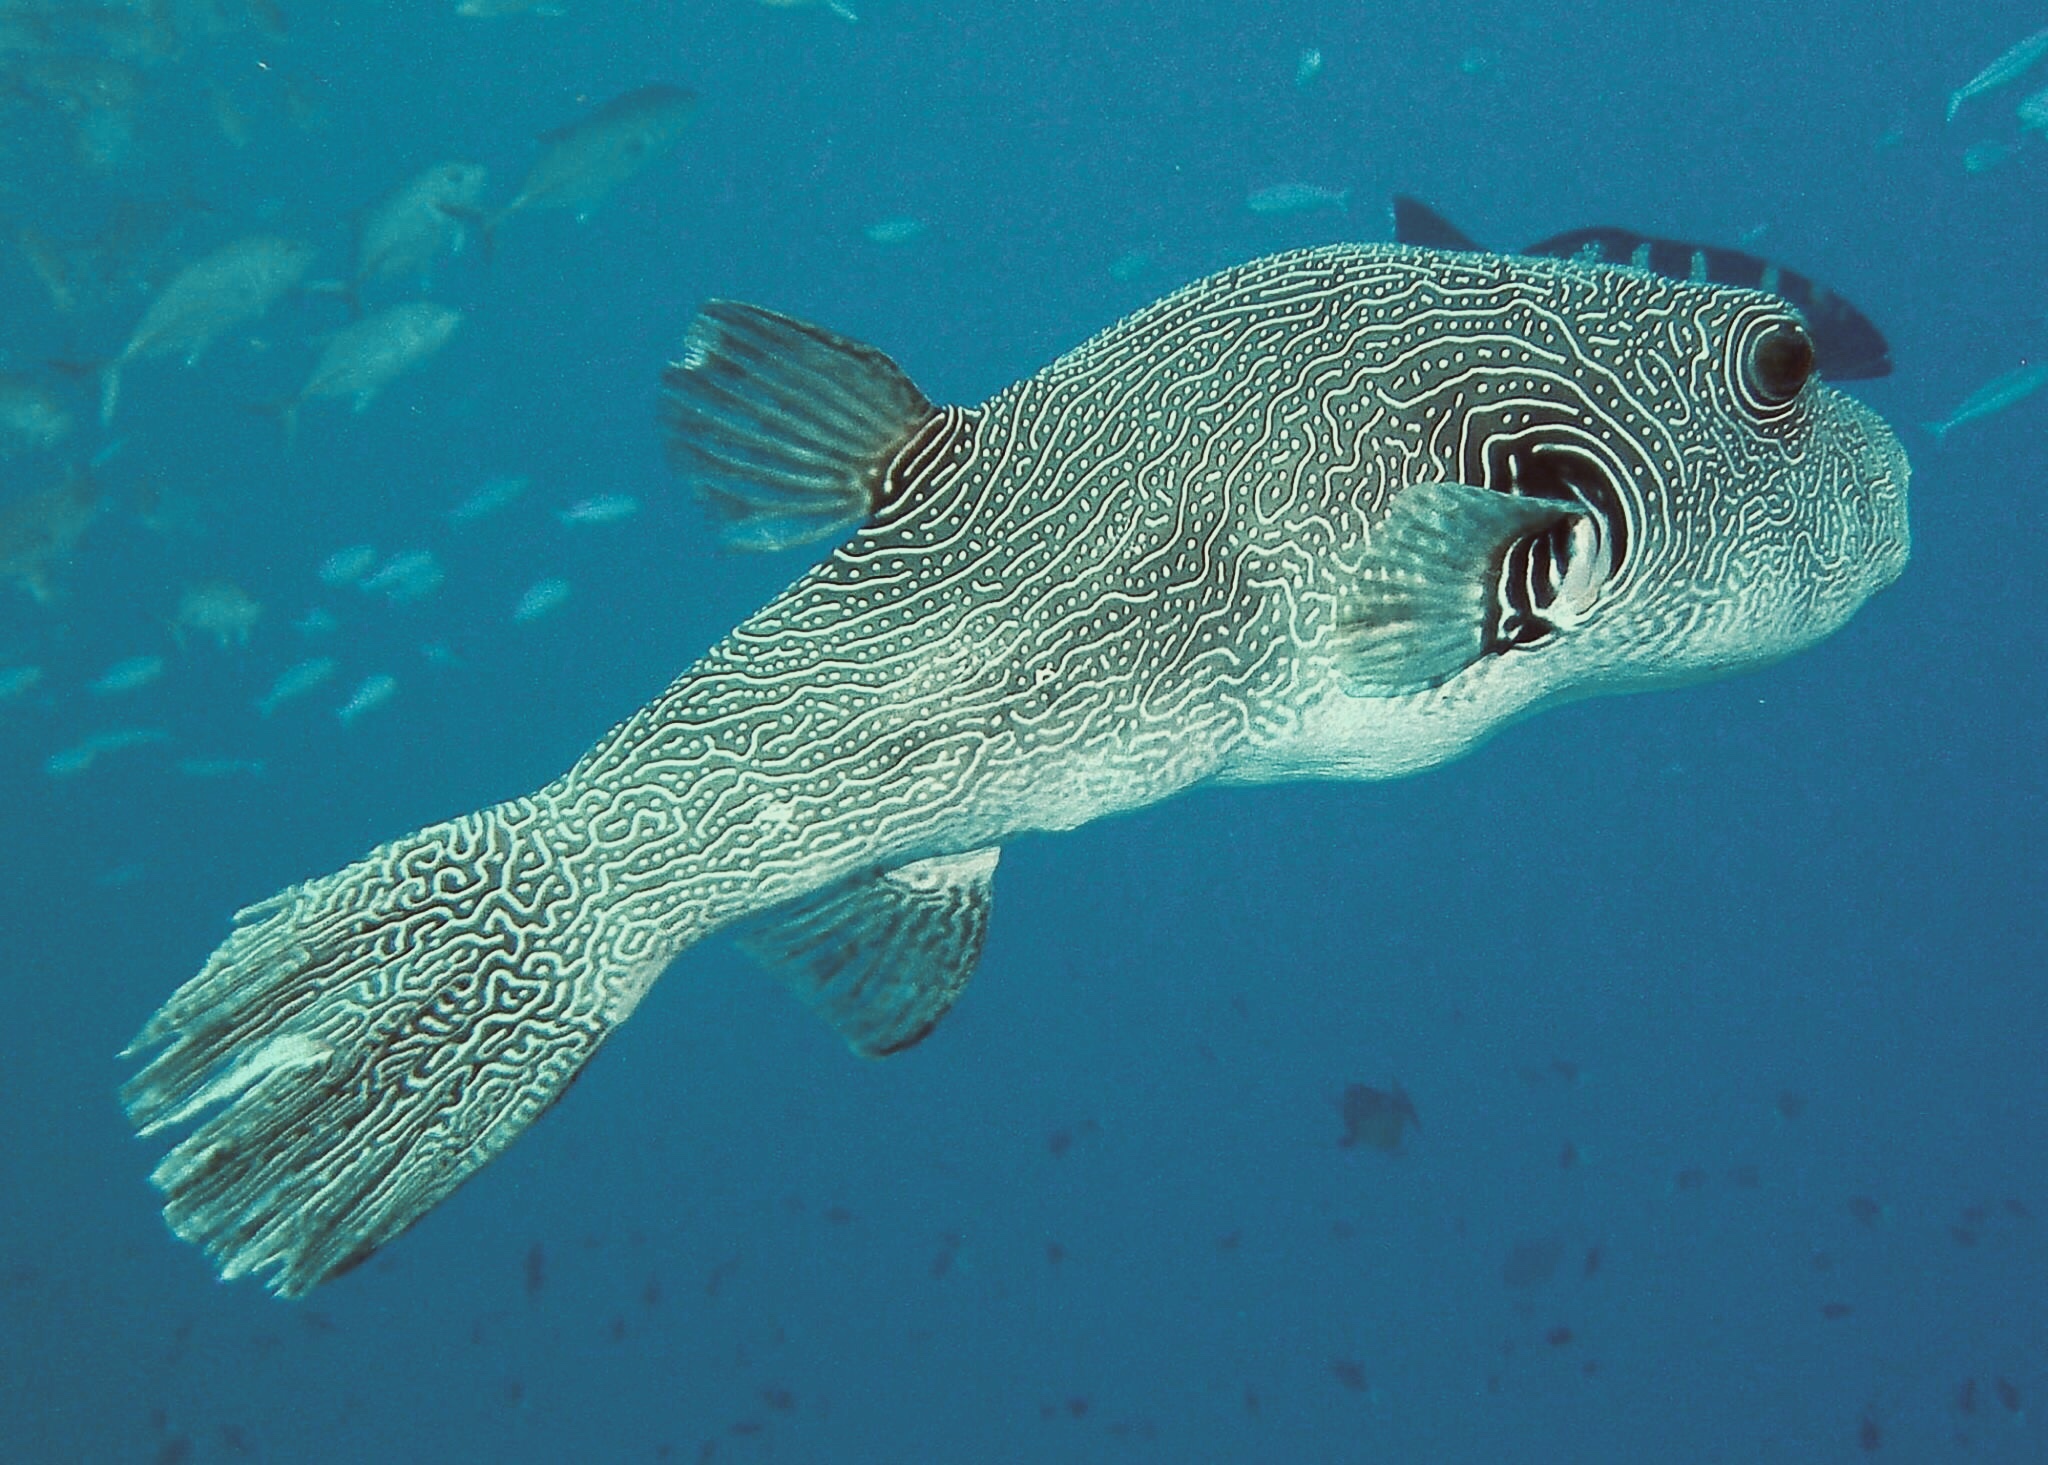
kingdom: Animalia
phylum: Chordata
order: Tetraodontiformes
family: Tetraodontidae
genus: Arothron
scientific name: Arothron multilineatus
